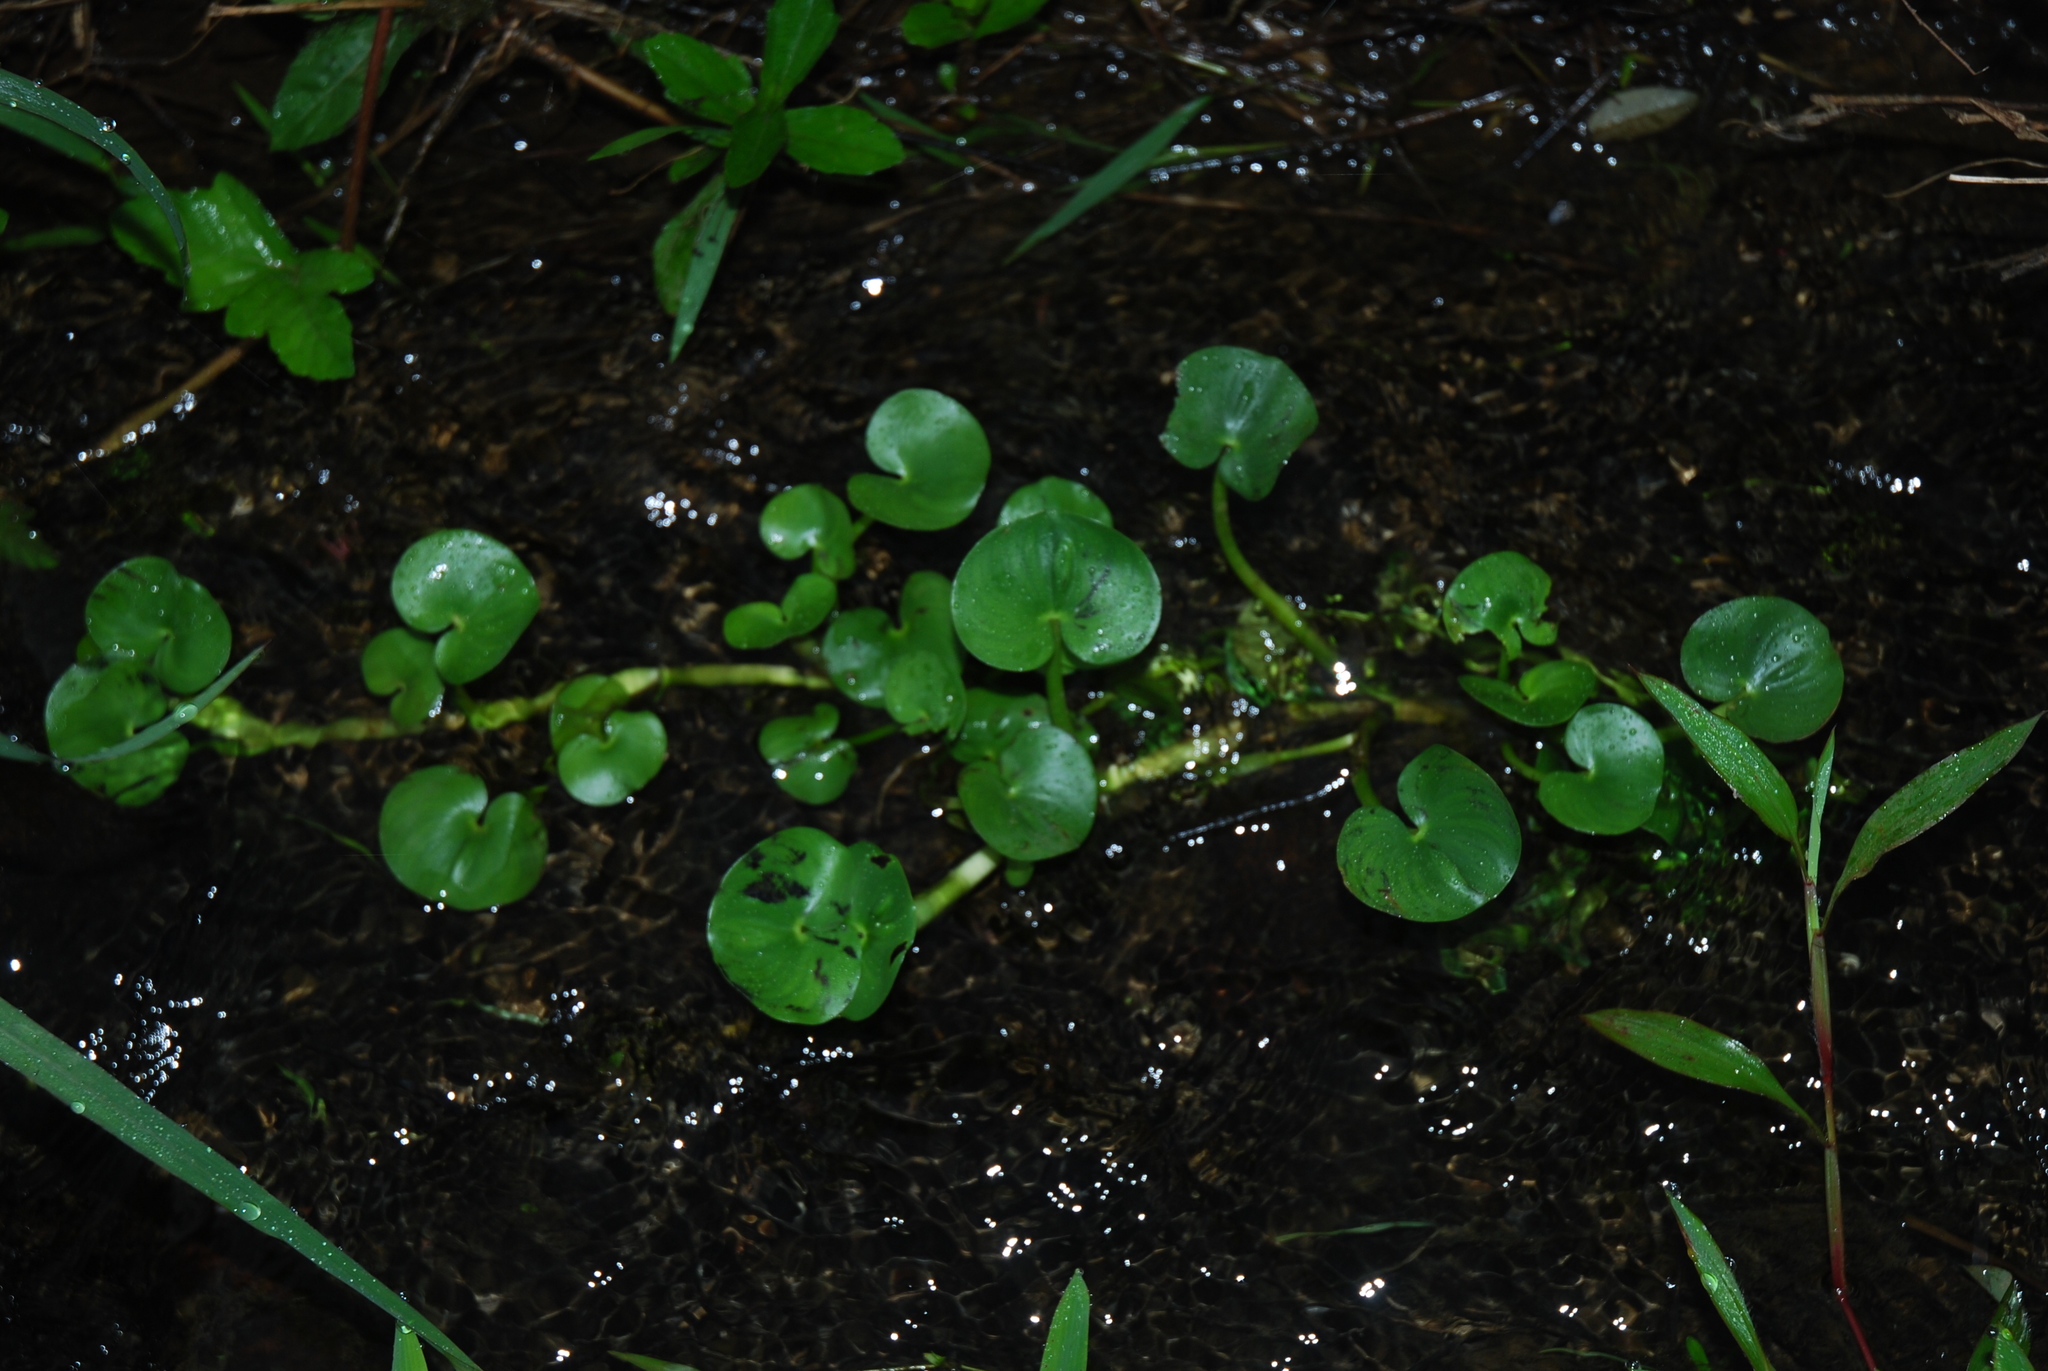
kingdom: Plantae
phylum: Tracheophyta
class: Liliopsida
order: Commelinales
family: Pontederiaceae
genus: Heteranthera
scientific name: Heteranthera reniformis
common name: Kidneyleaf mudplantain
